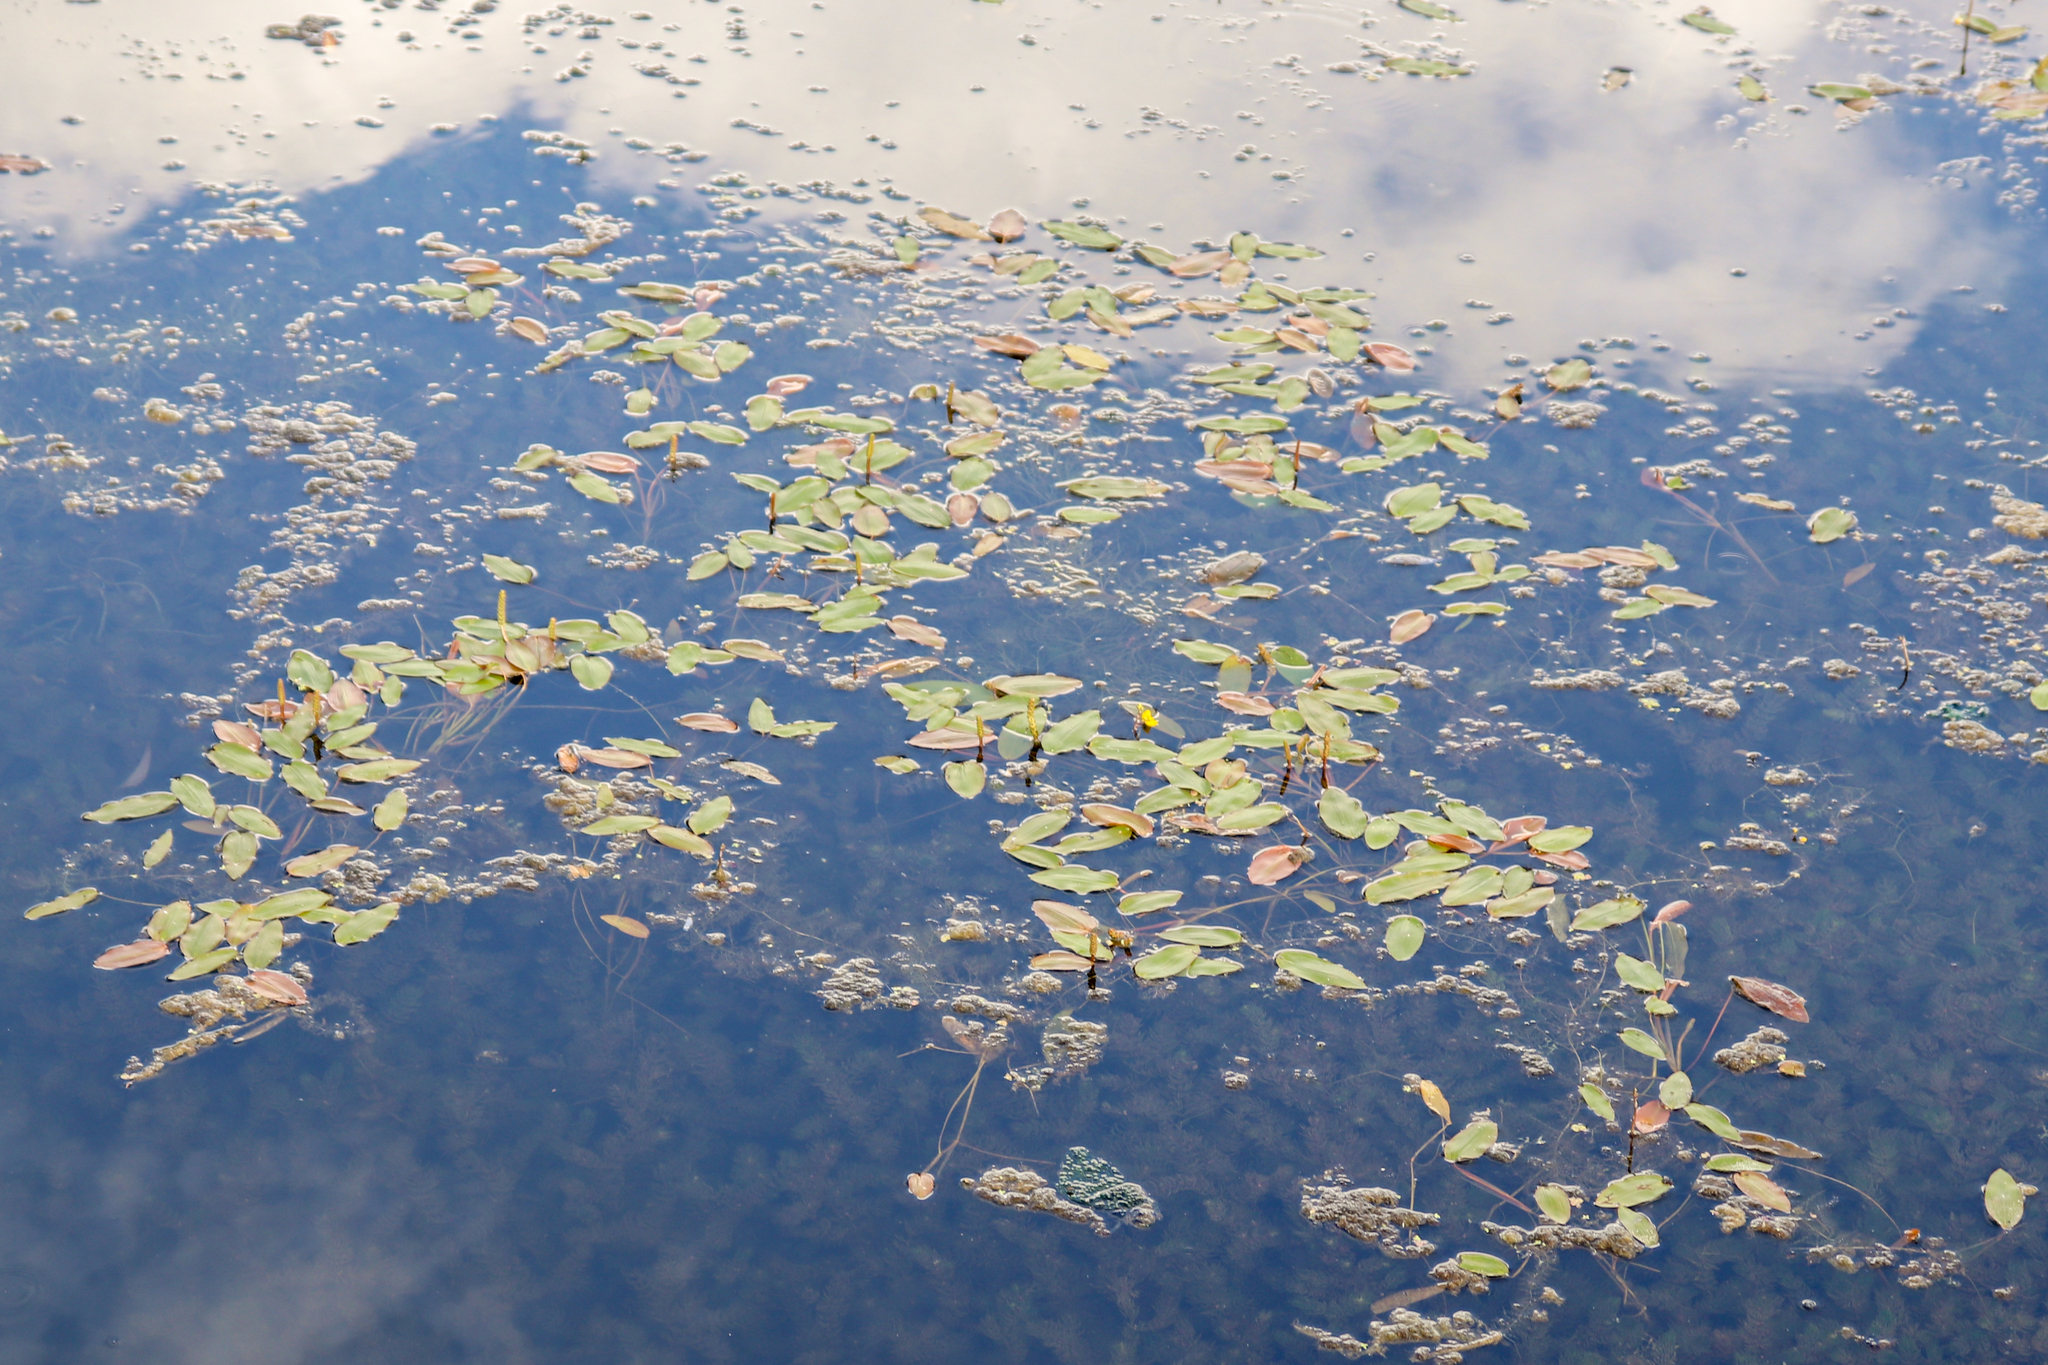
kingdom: Plantae
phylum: Tracheophyta
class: Liliopsida
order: Alismatales
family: Potamogetonaceae
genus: Potamogeton
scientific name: Potamogeton natans
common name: Broad-leaved pondweed
